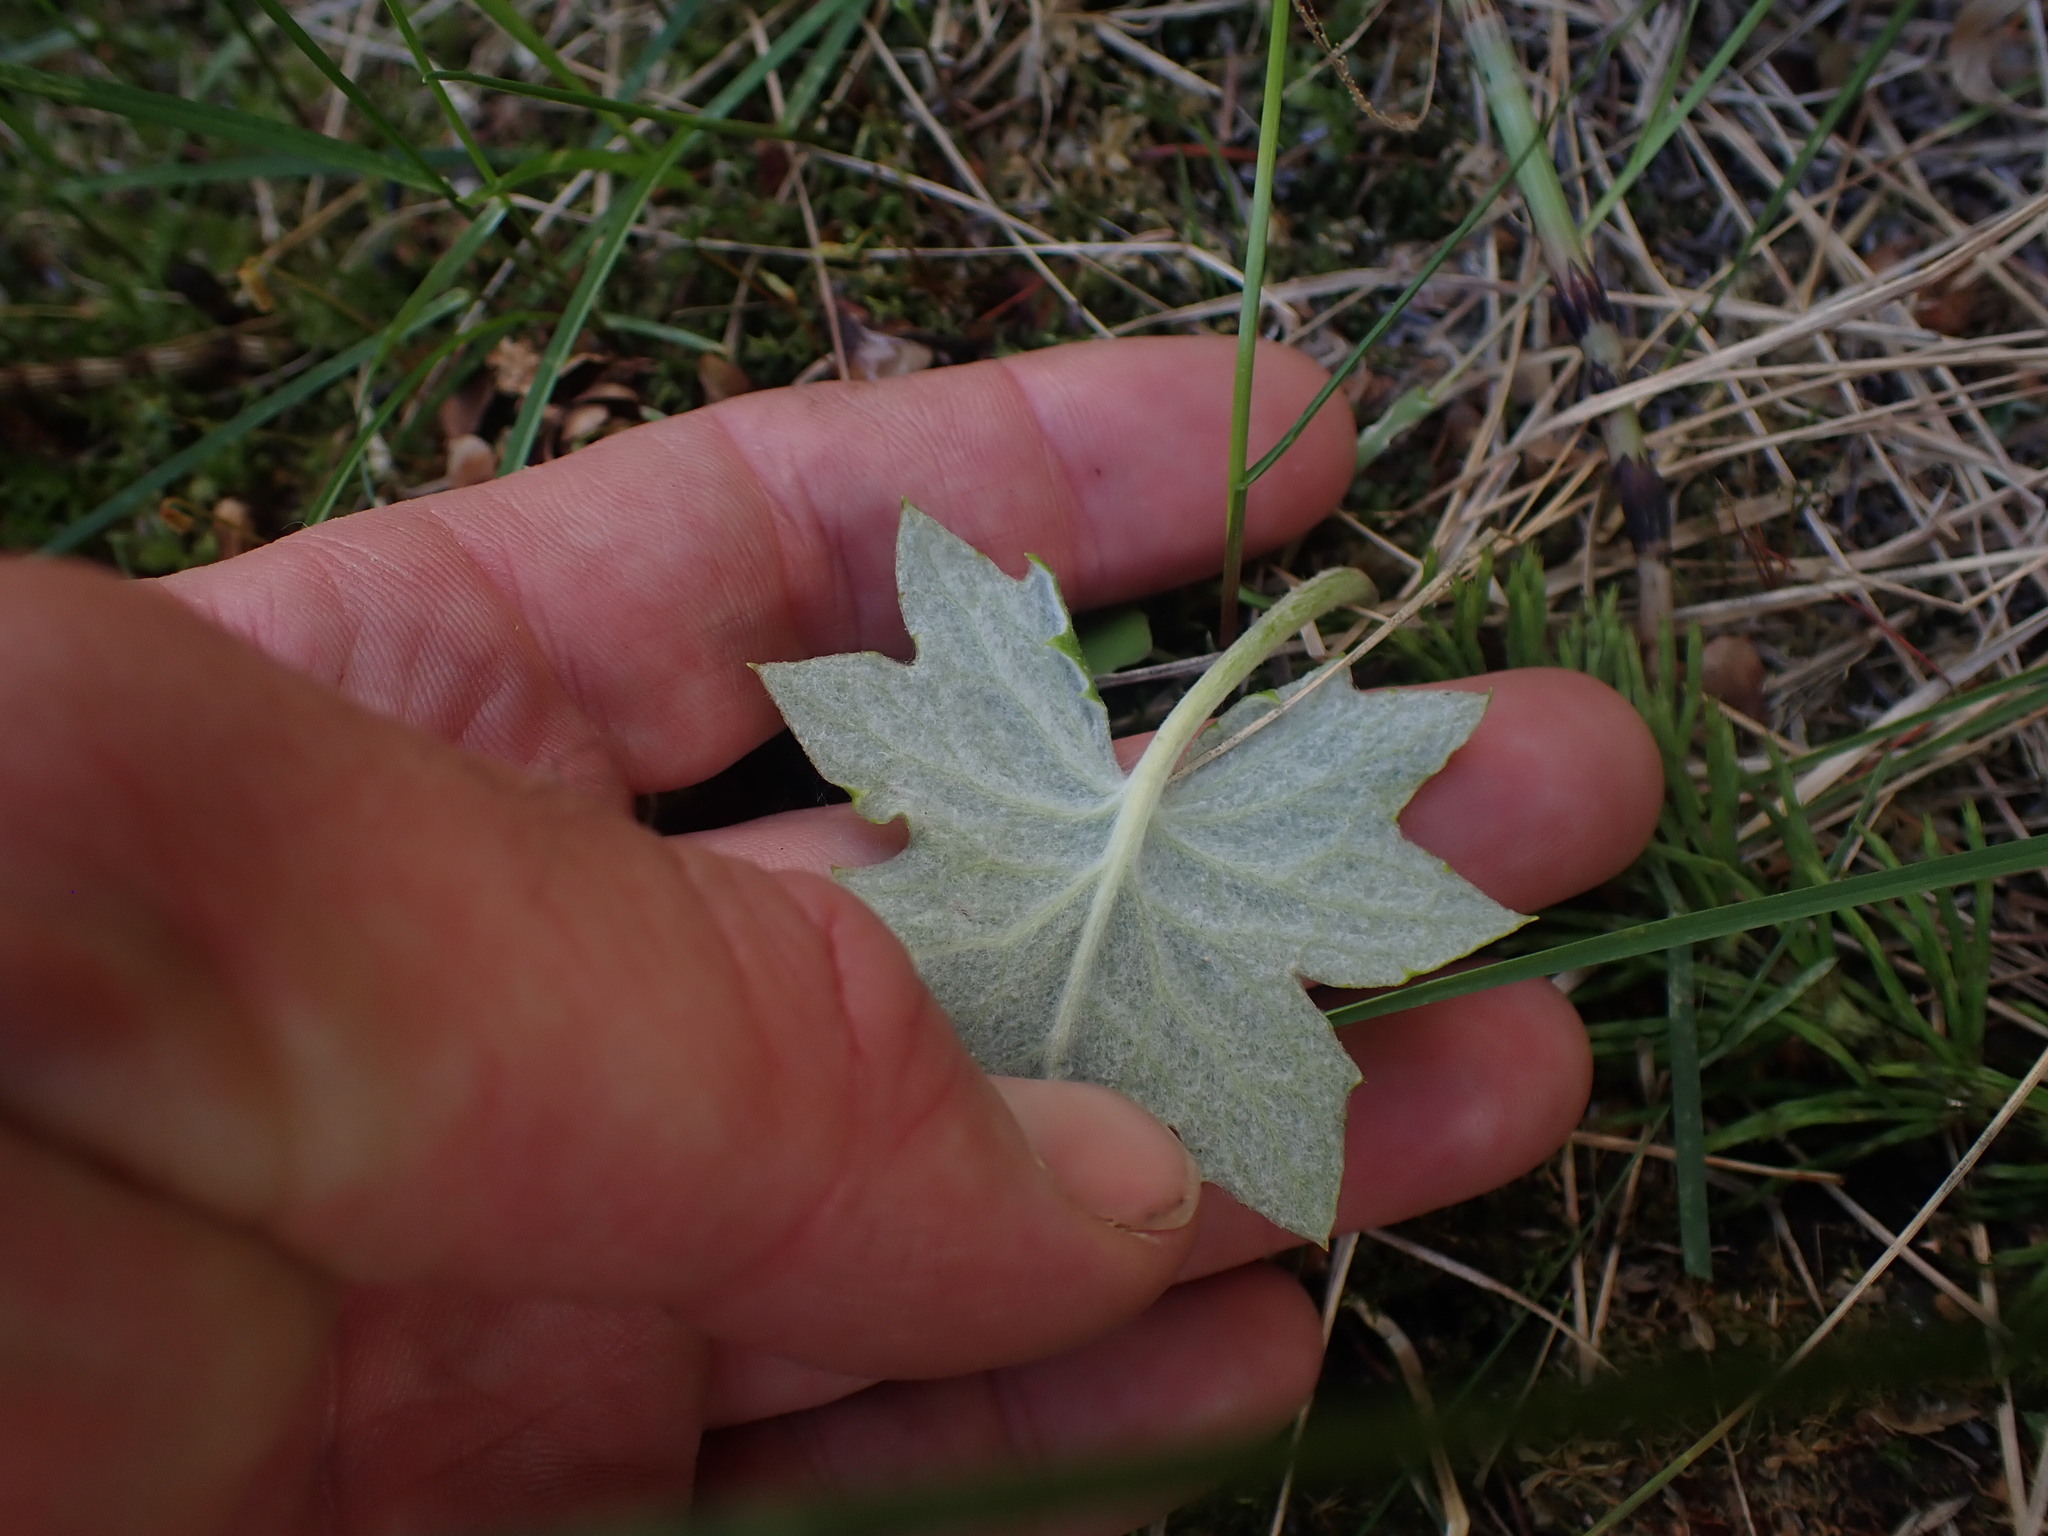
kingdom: Plantae
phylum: Tracheophyta
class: Magnoliopsida
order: Asterales
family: Asteraceae
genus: Petasites
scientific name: Petasites frigidus
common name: Arctic butterbur
